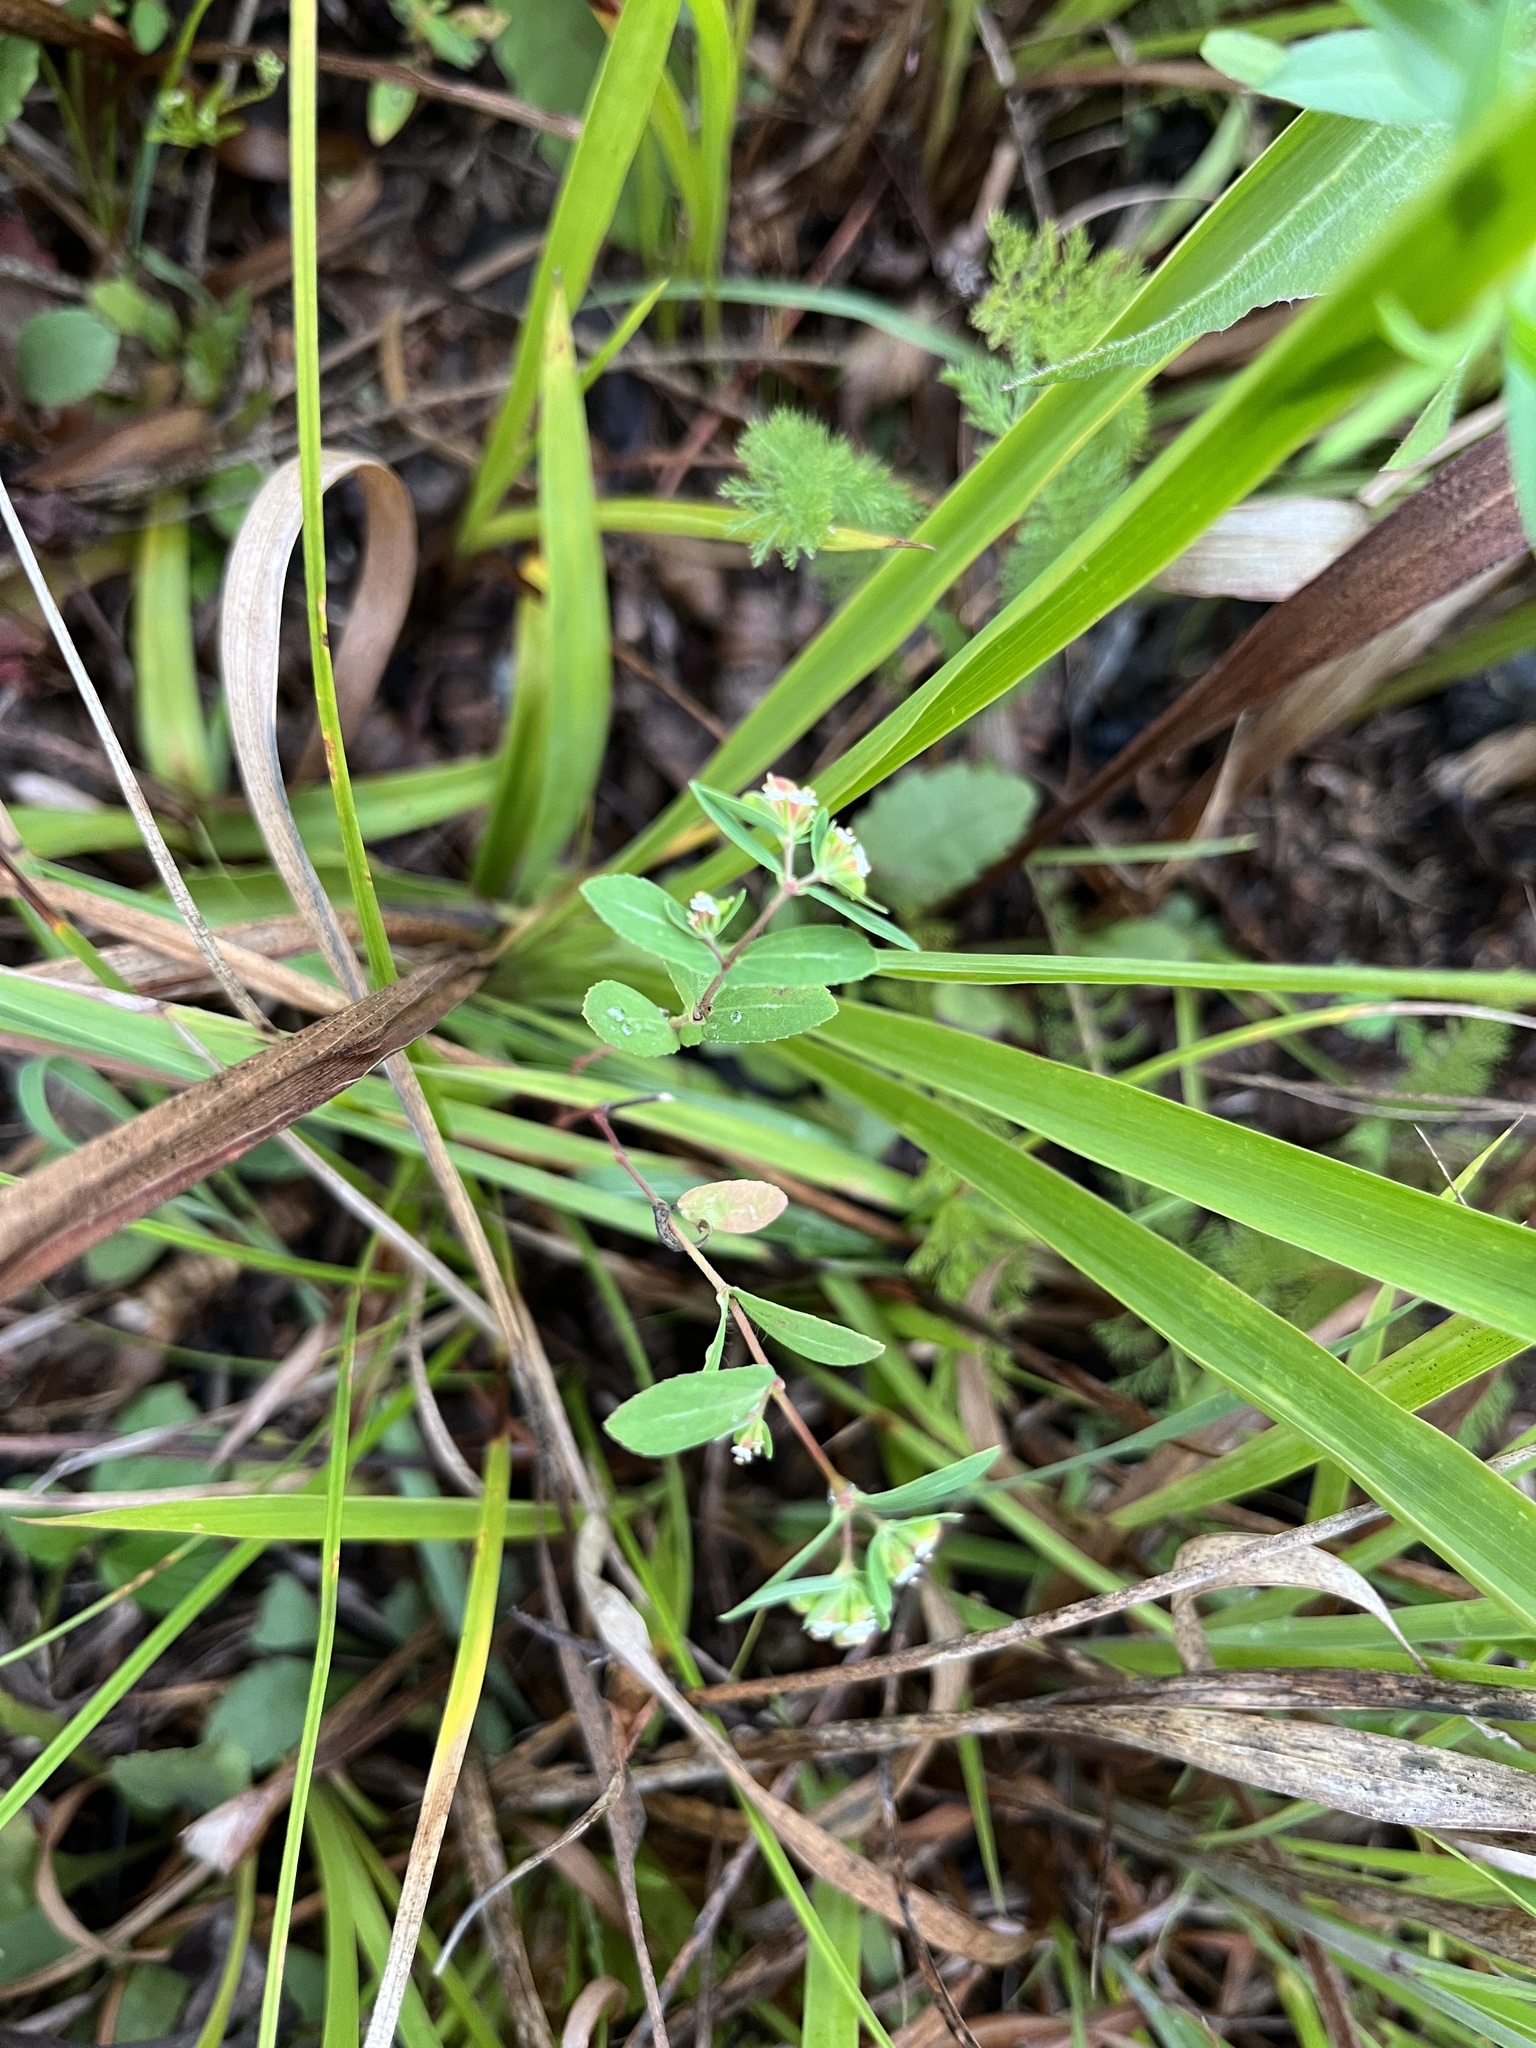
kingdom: Plantae
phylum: Tracheophyta
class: Magnoliopsida
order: Malpighiales
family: Euphorbiaceae
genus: Euphorbia
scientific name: Euphorbia nutans
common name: Eyebane
